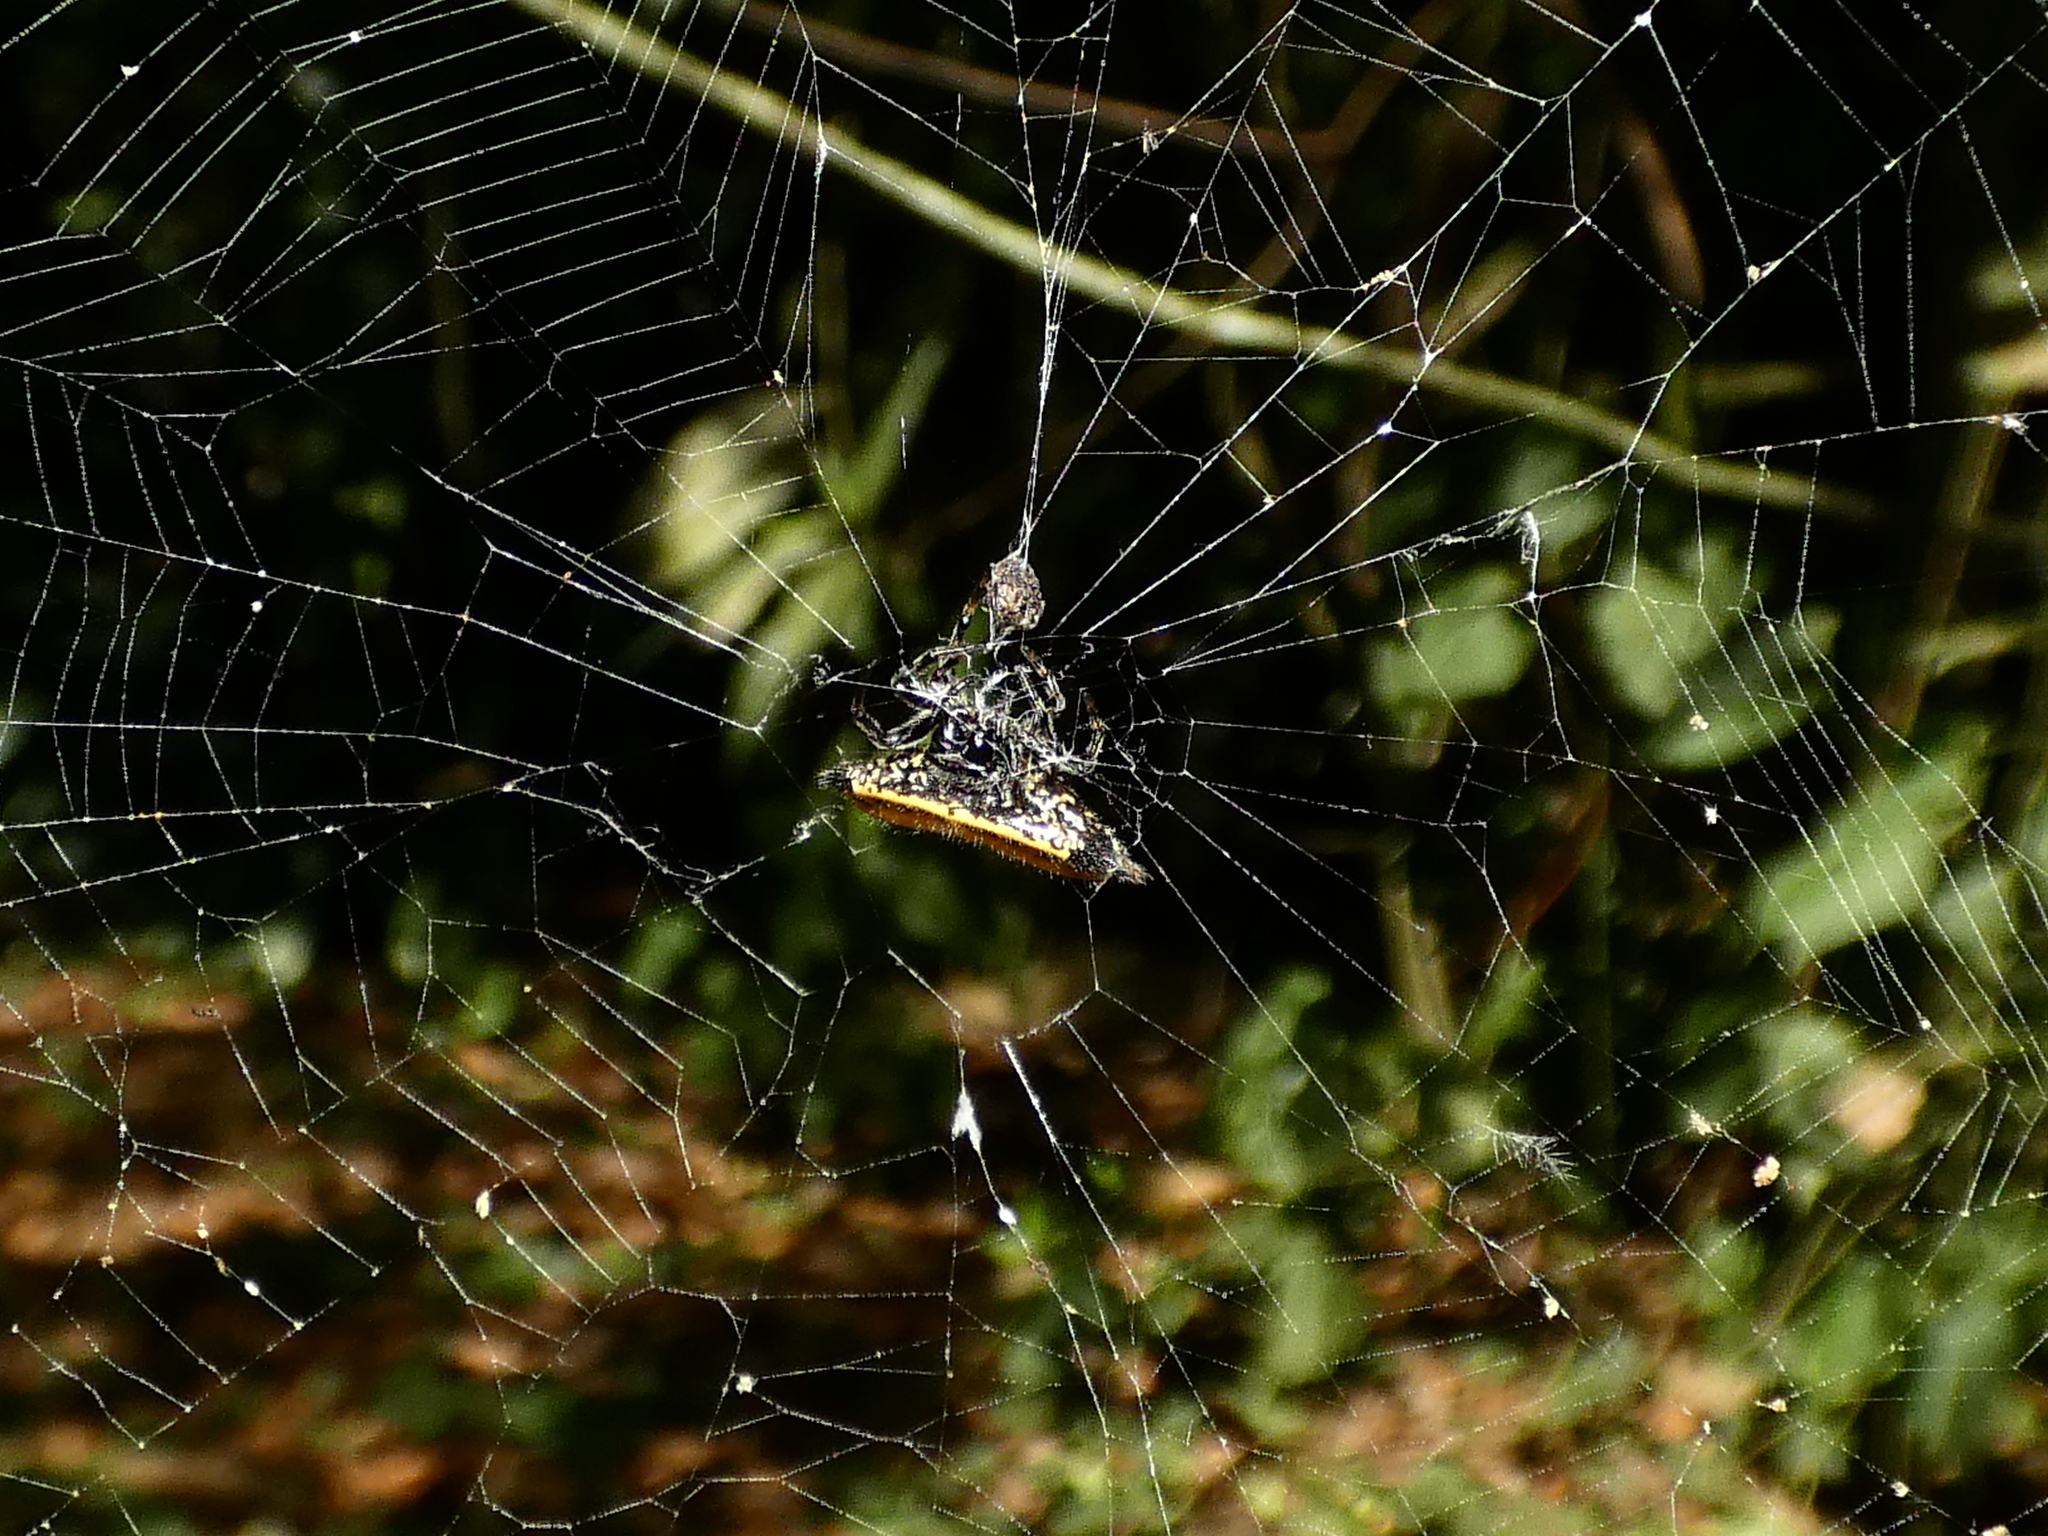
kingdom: Animalia
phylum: Arthropoda
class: Arachnida
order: Araneae
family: Araneidae
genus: Gasteracantha
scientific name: Gasteracantha cancriformis
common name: Orb weavers
